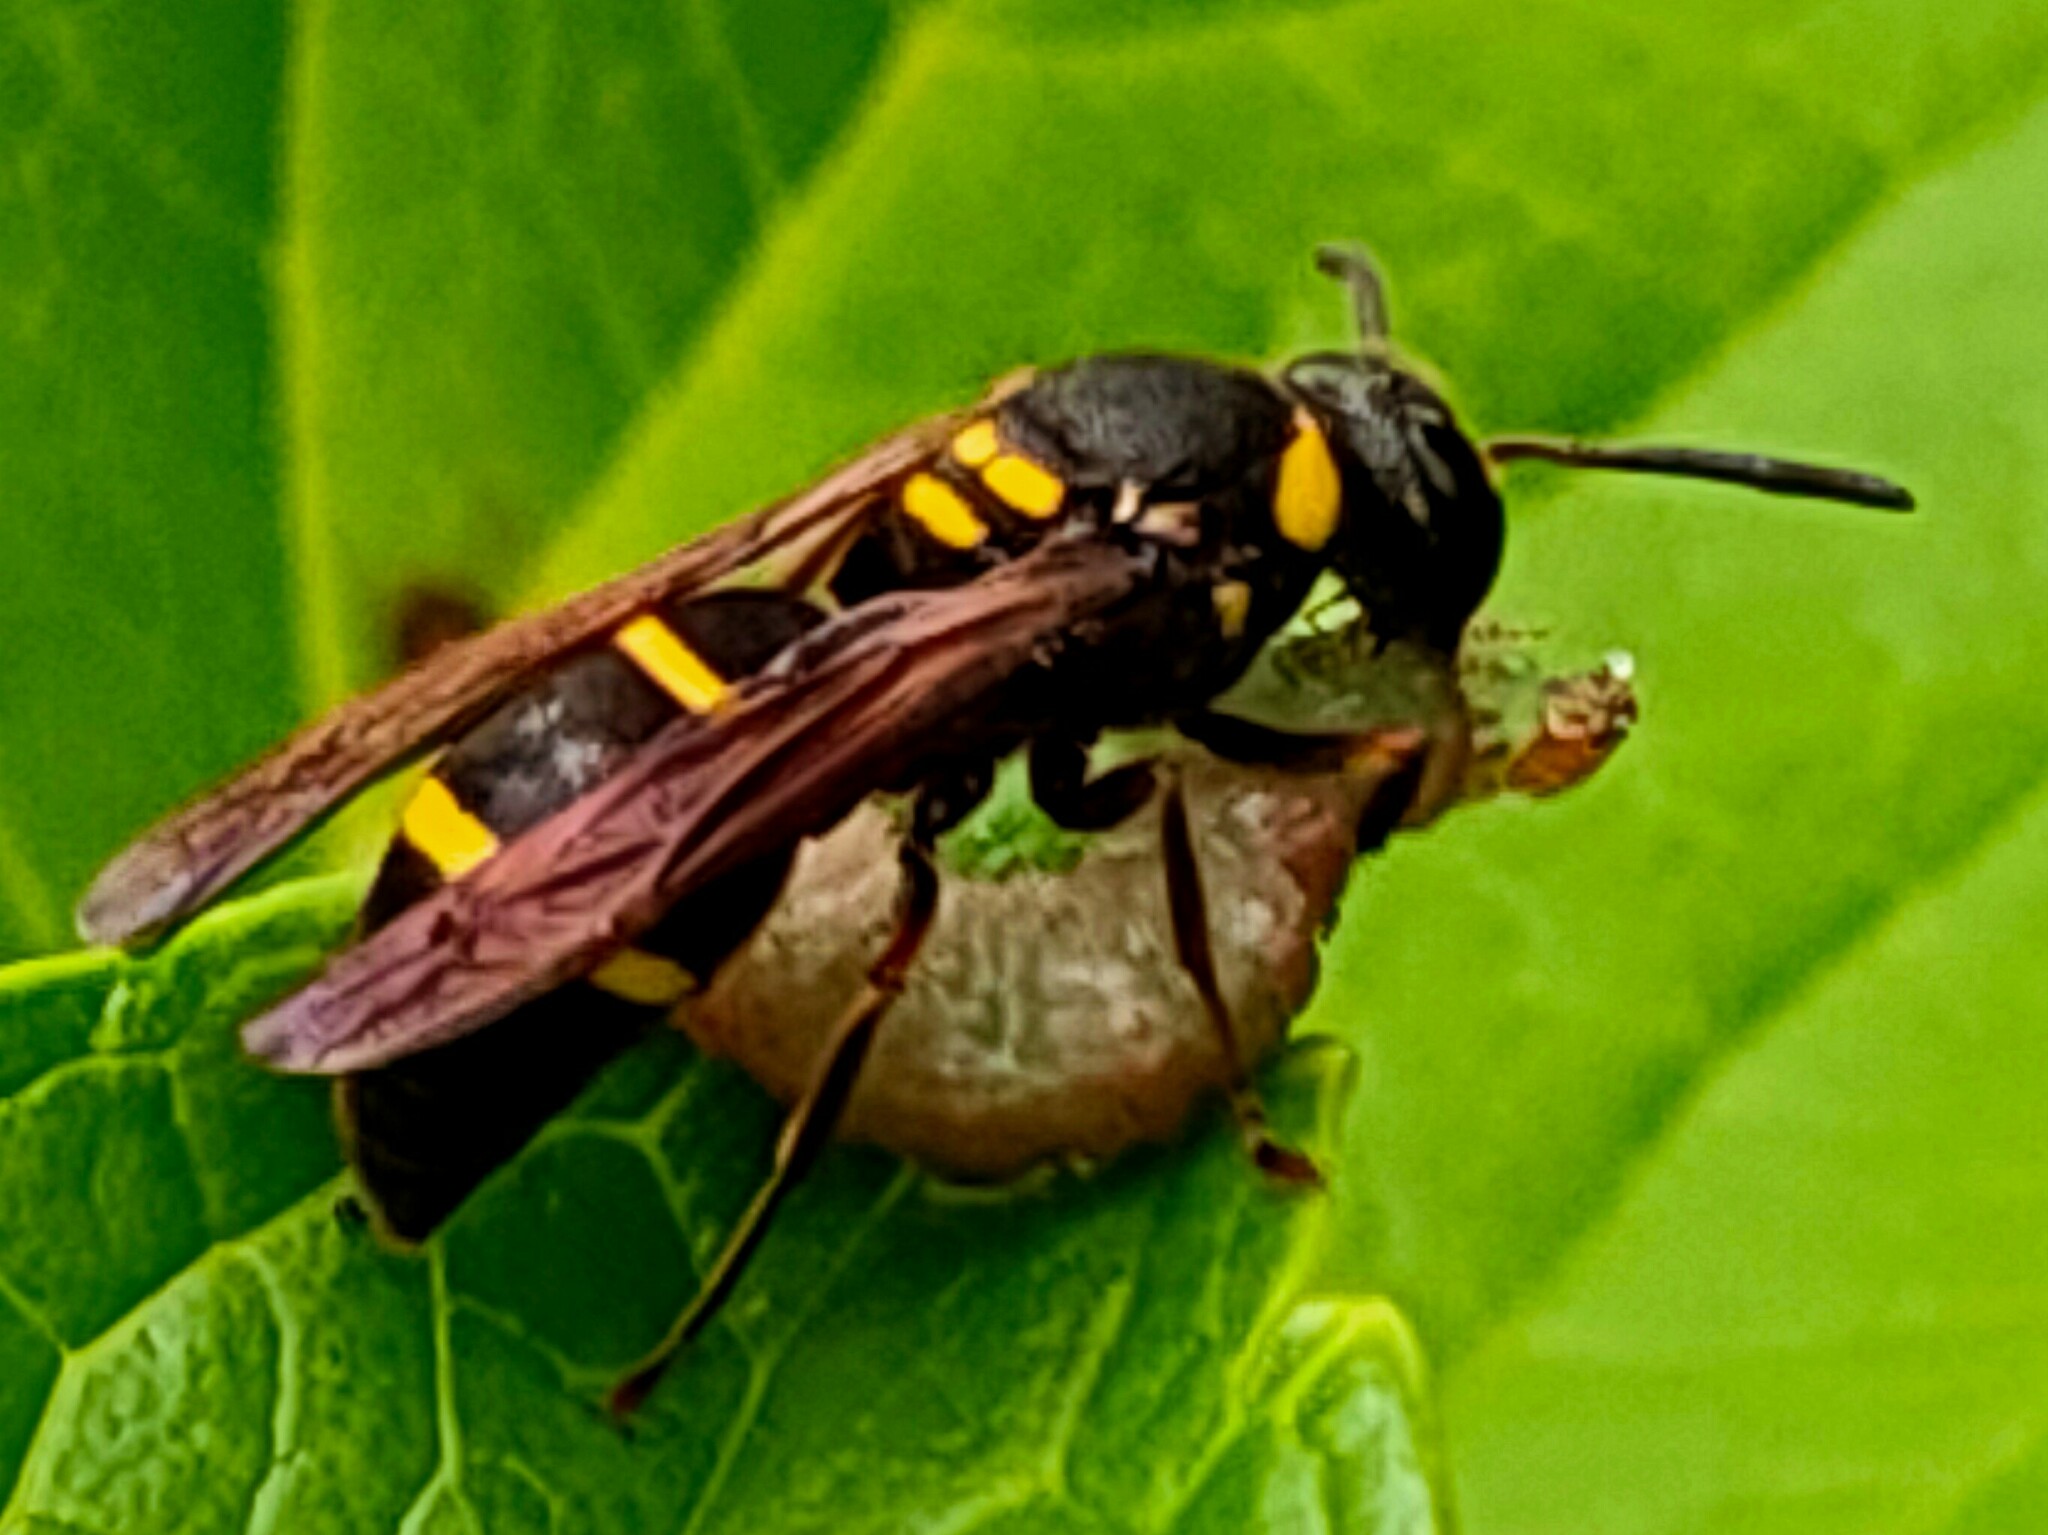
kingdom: Animalia
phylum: Arthropoda
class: Insecta
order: Hymenoptera
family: Eumenidae
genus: Anterhynchium
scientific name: Anterhynchium flavomarginatum
